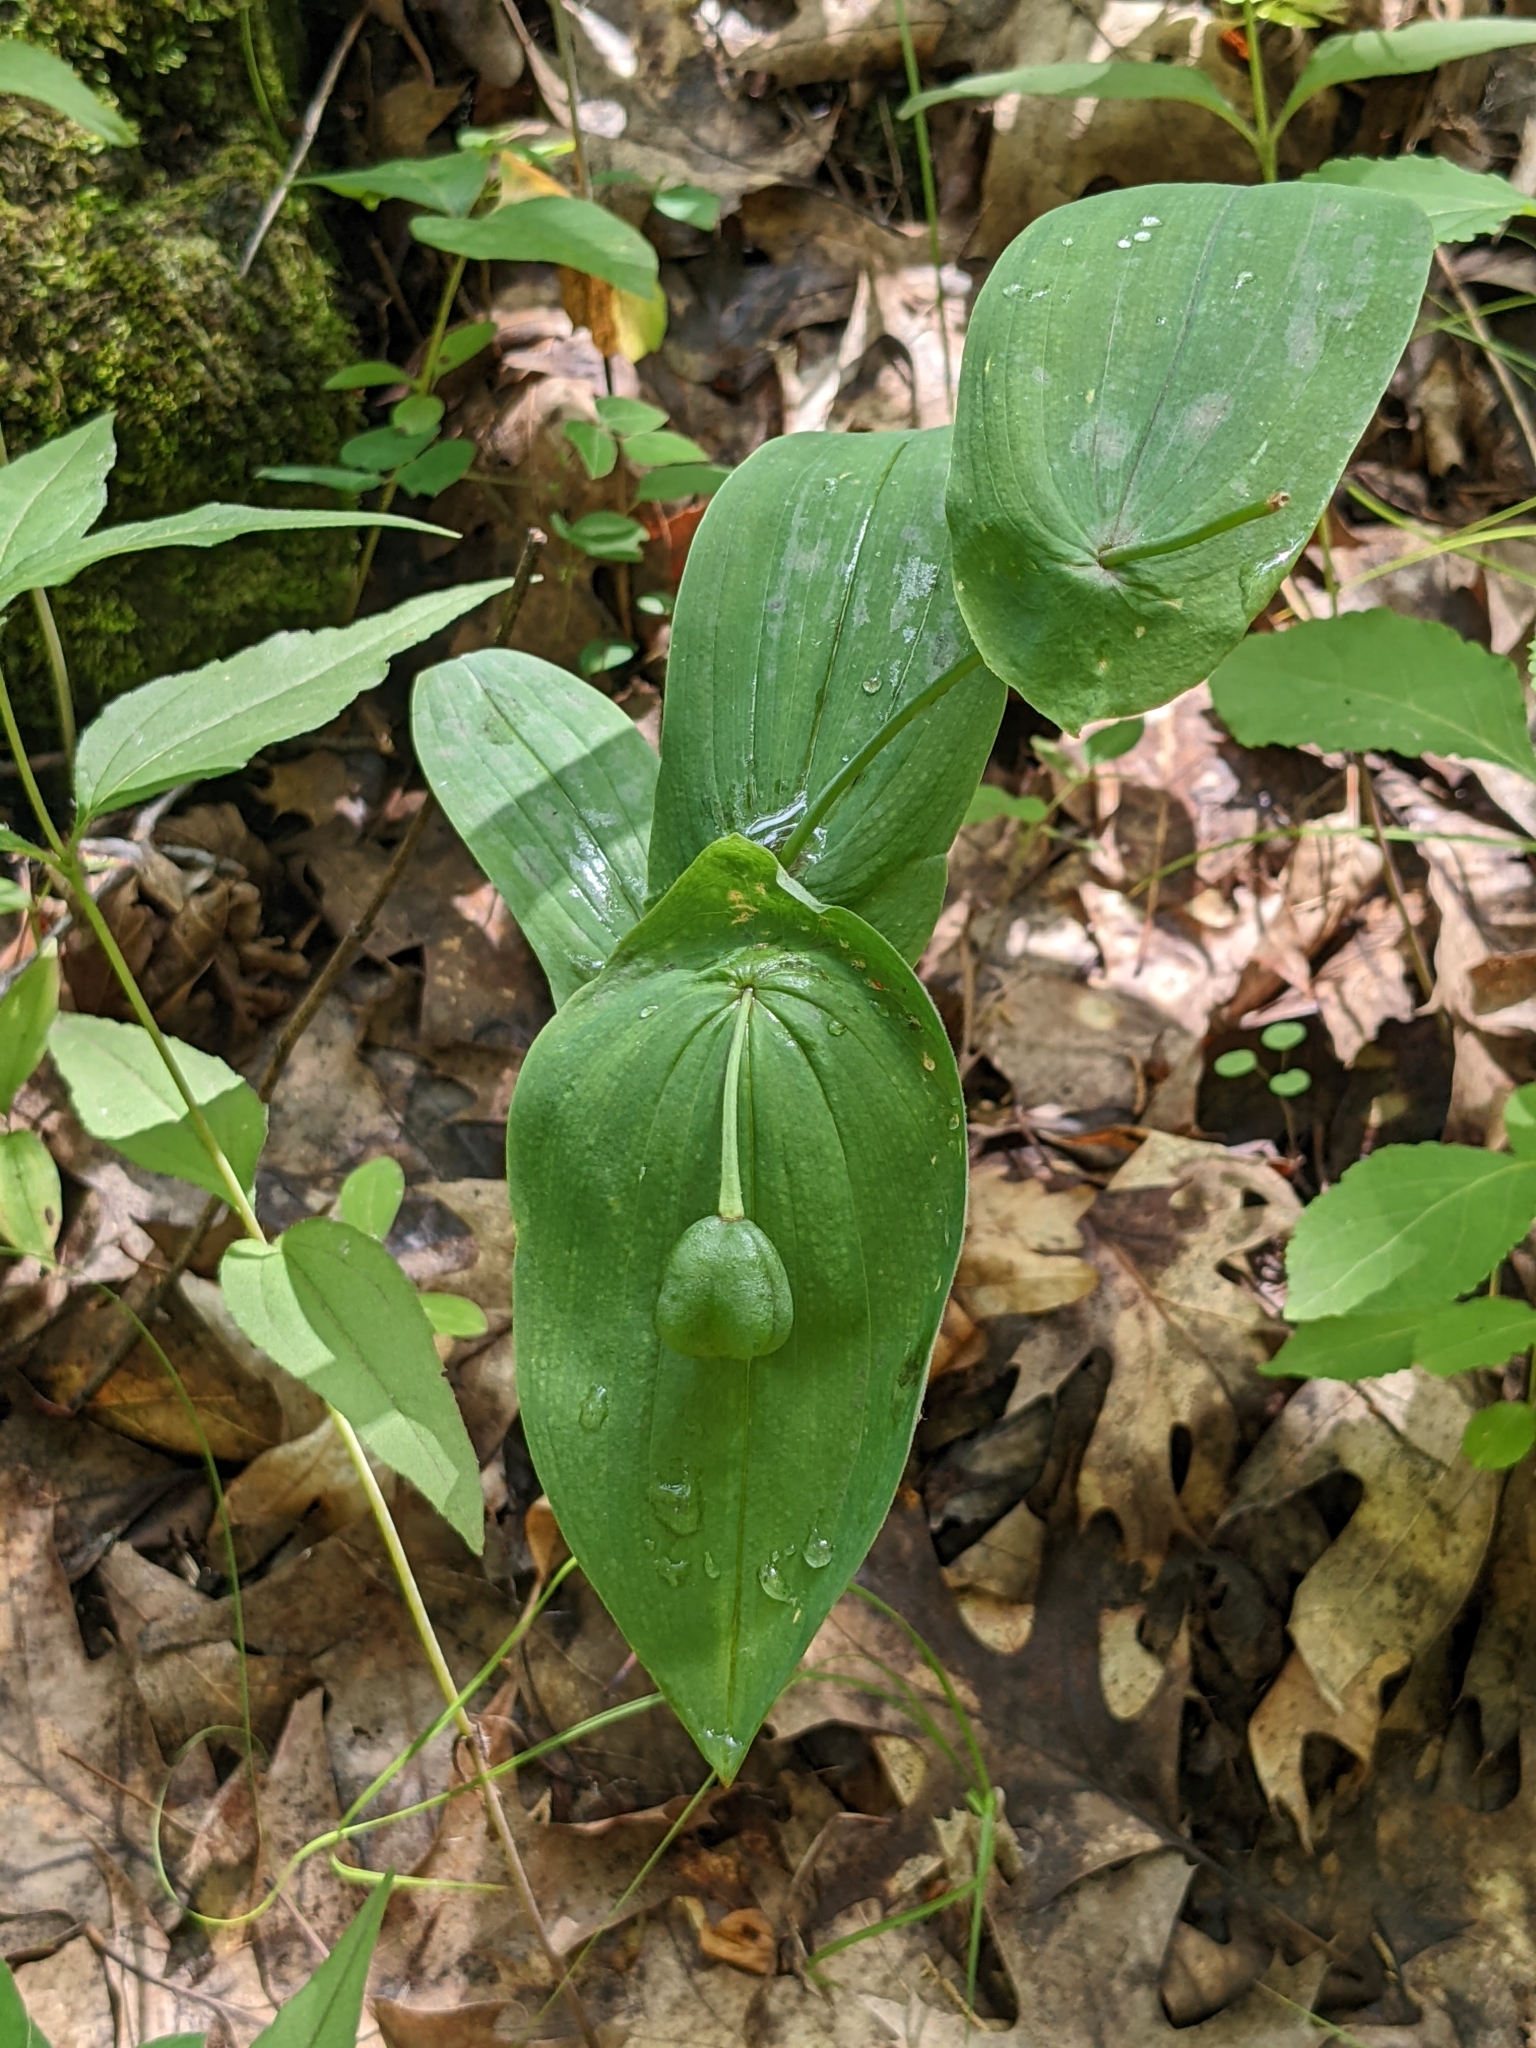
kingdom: Plantae
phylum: Tracheophyta
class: Liliopsida
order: Liliales
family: Colchicaceae
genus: Uvularia
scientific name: Uvularia grandiflora
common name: Bellwort
